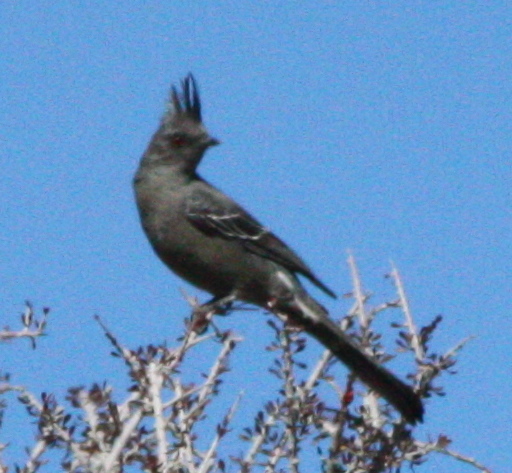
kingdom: Animalia
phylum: Chordata
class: Aves
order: Passeriformes
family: Ptilogonatidae
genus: Phainopepla
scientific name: Phainopepla nitens
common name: Phainopepla
